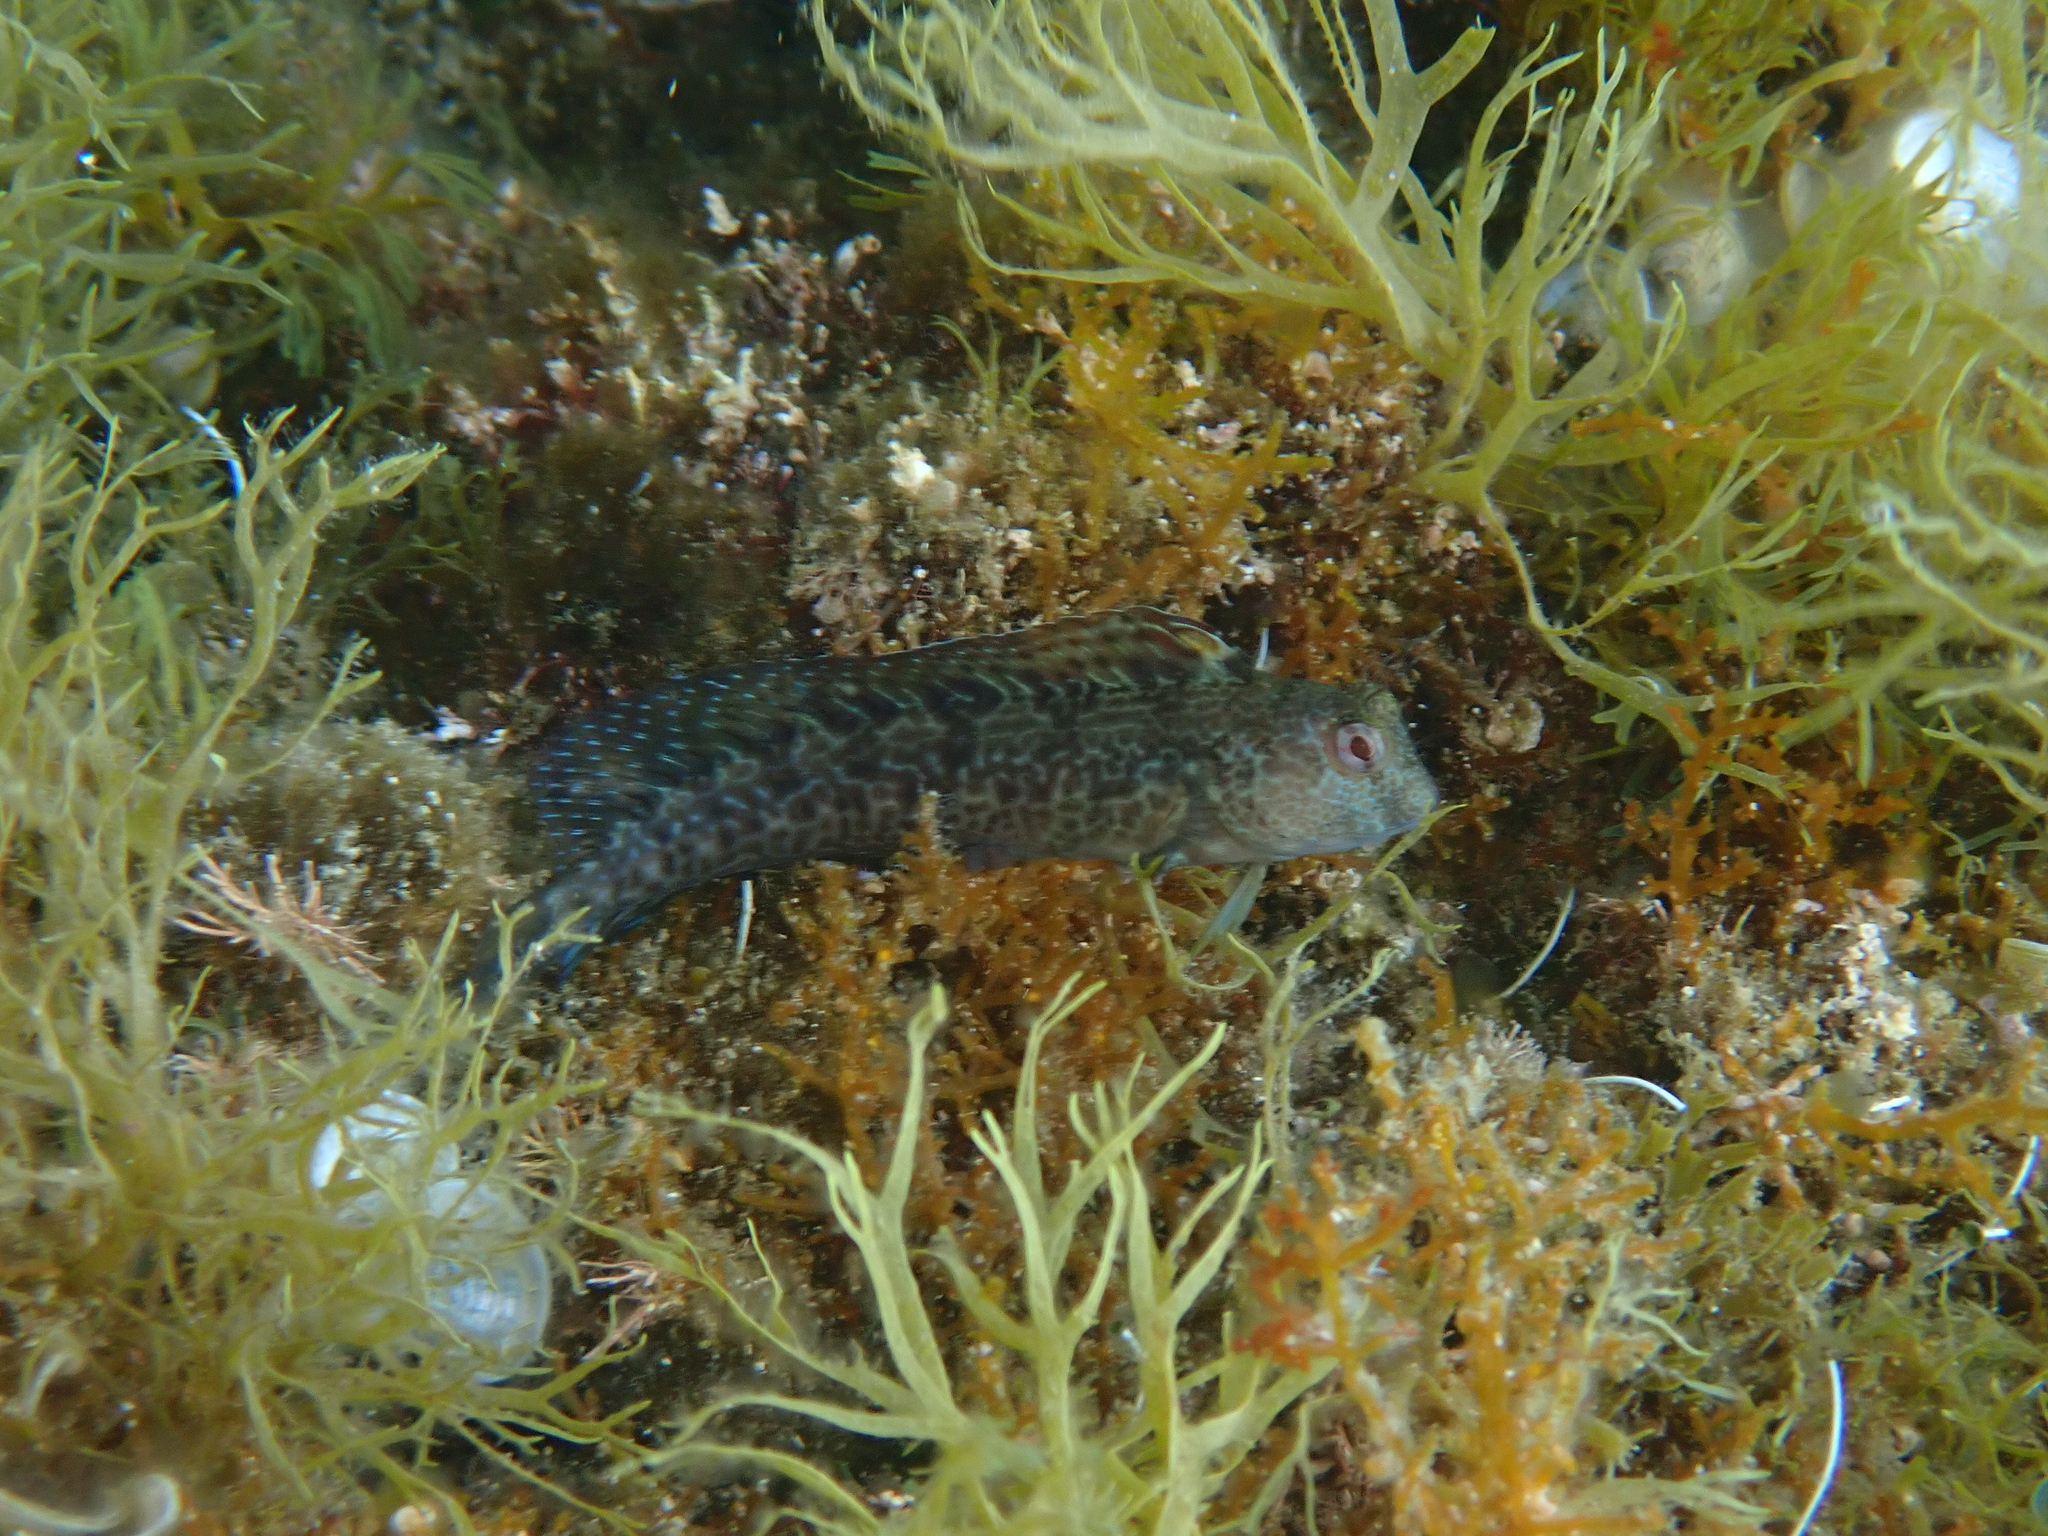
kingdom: Animalia
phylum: Chordata
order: Perciformes
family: Blenniidae
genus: Parablennius
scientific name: Parablennius pilicornis
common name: Ringneck blenny
